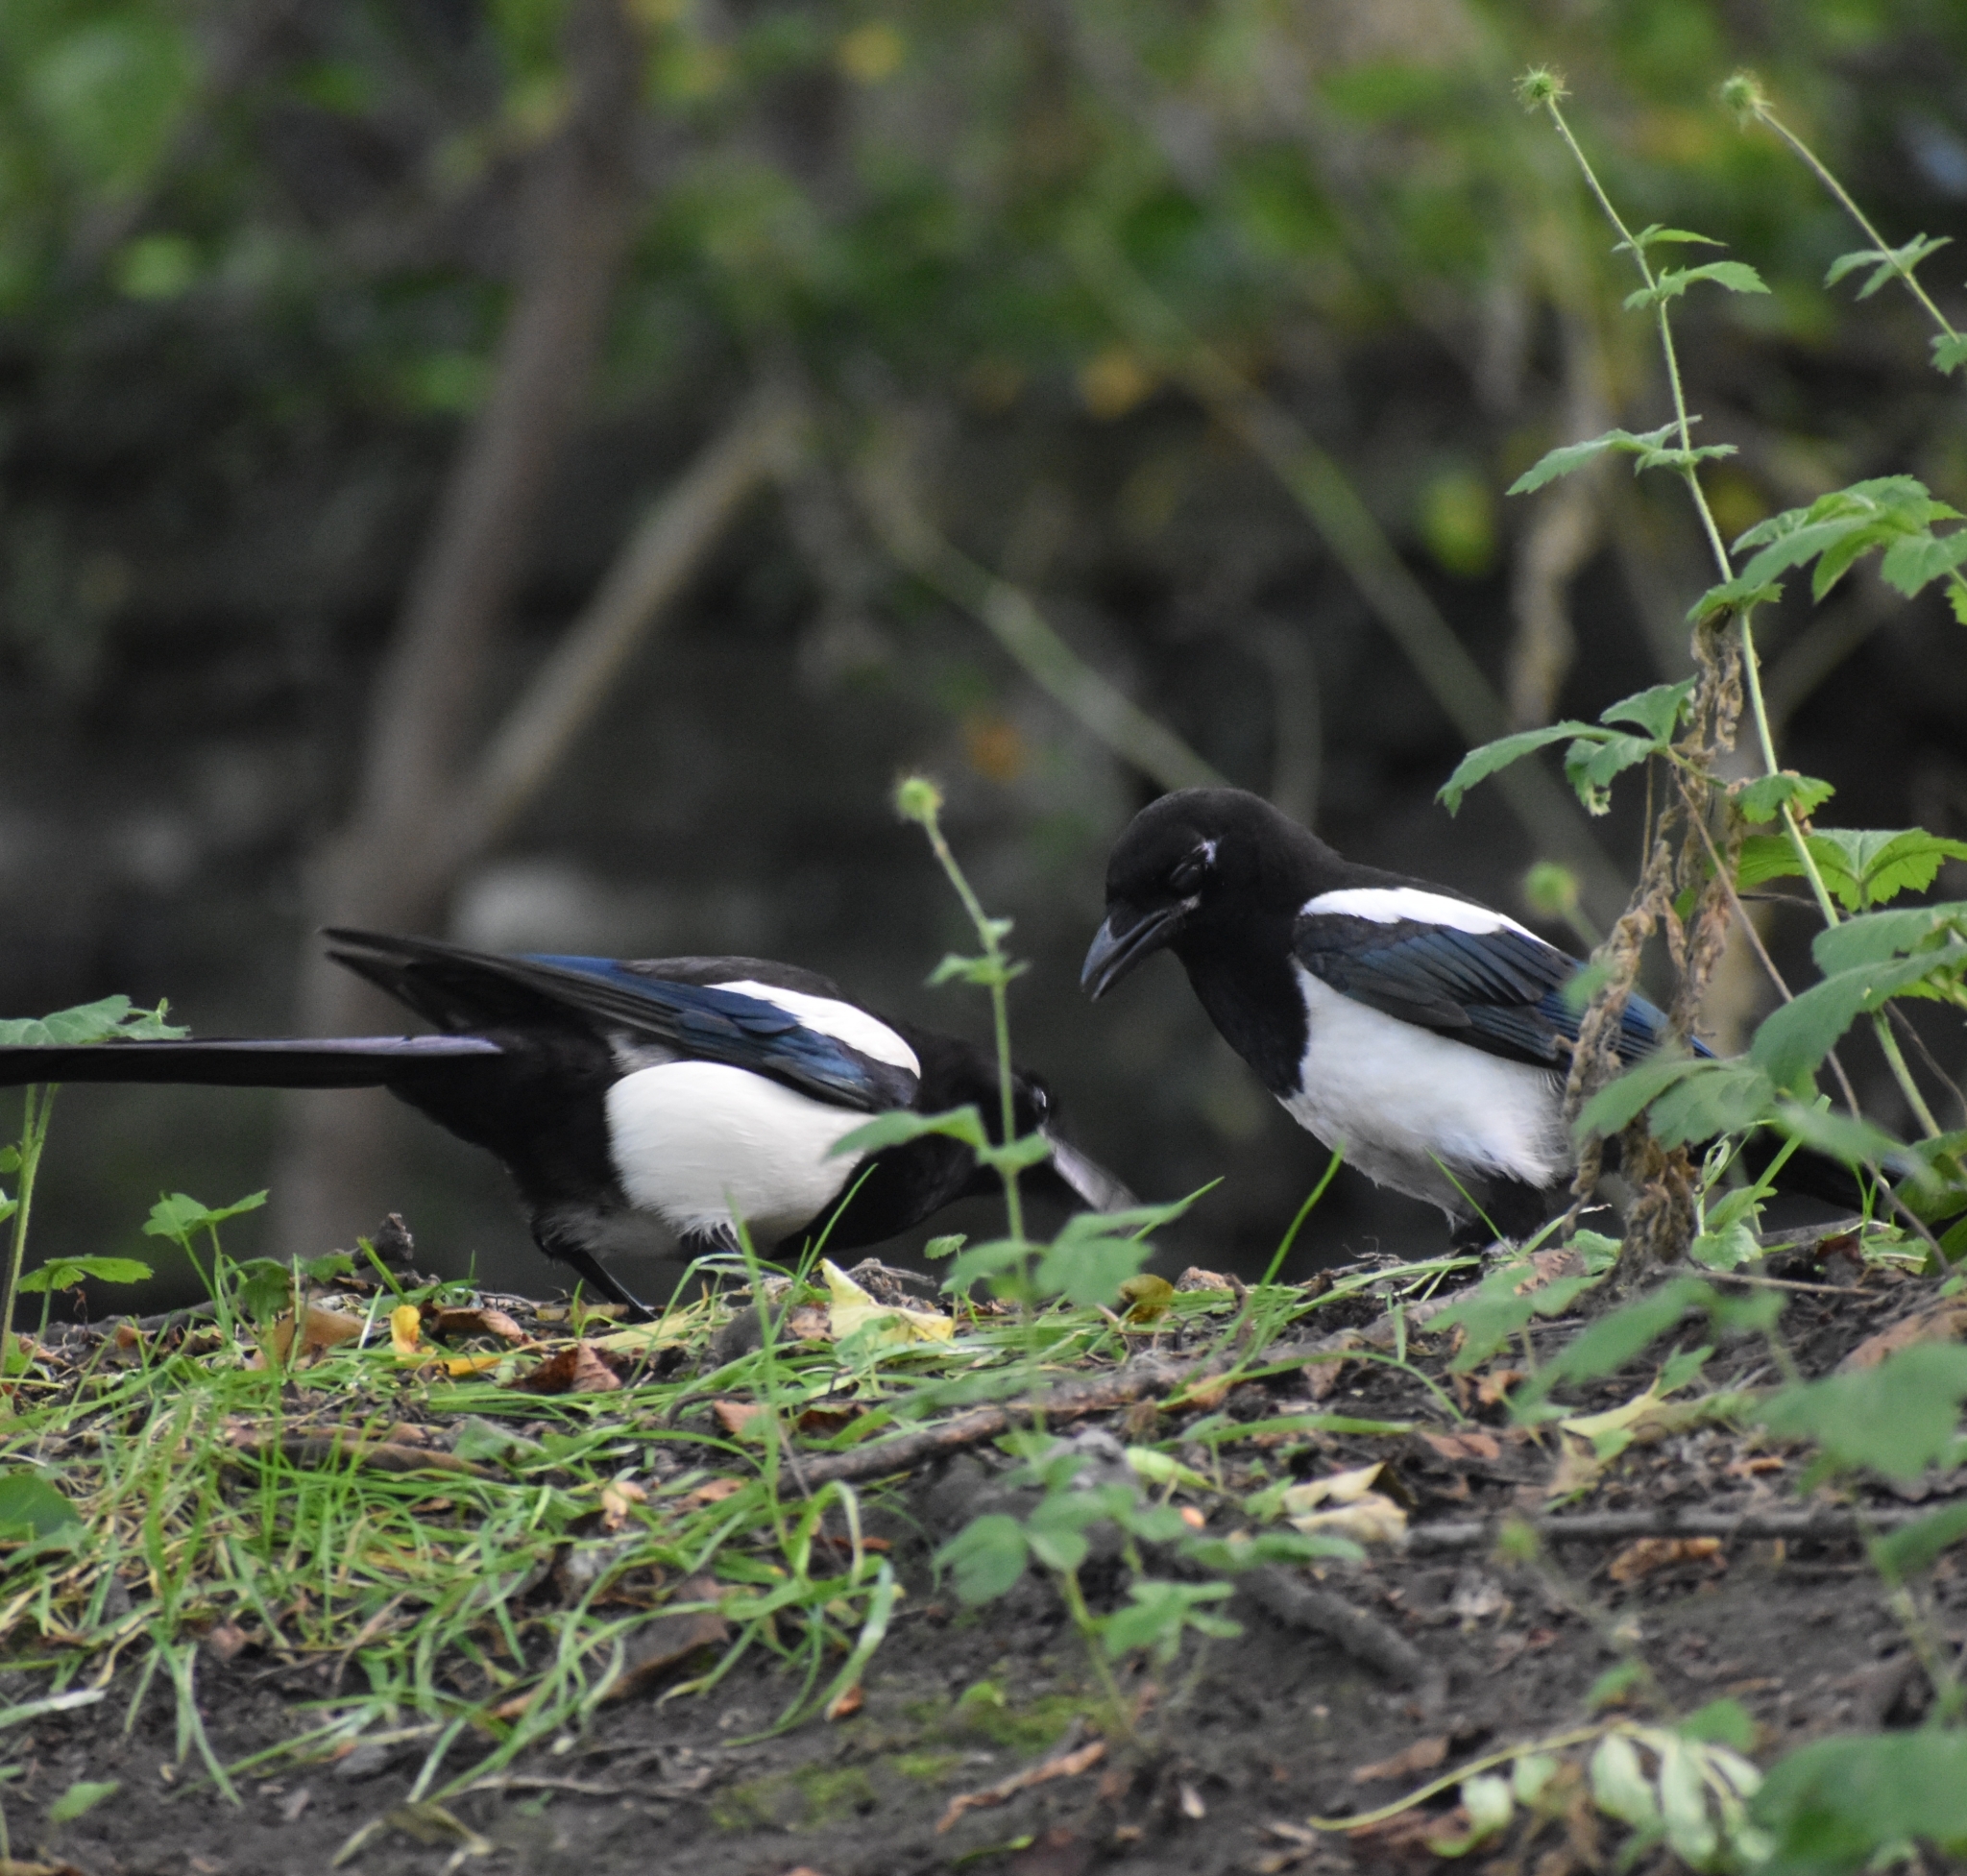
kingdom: Animalia
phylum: Chordata
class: Aves
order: Passeriformes
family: Corvidae
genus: Pica
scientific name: Pica pica
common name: Eurasian magpie
